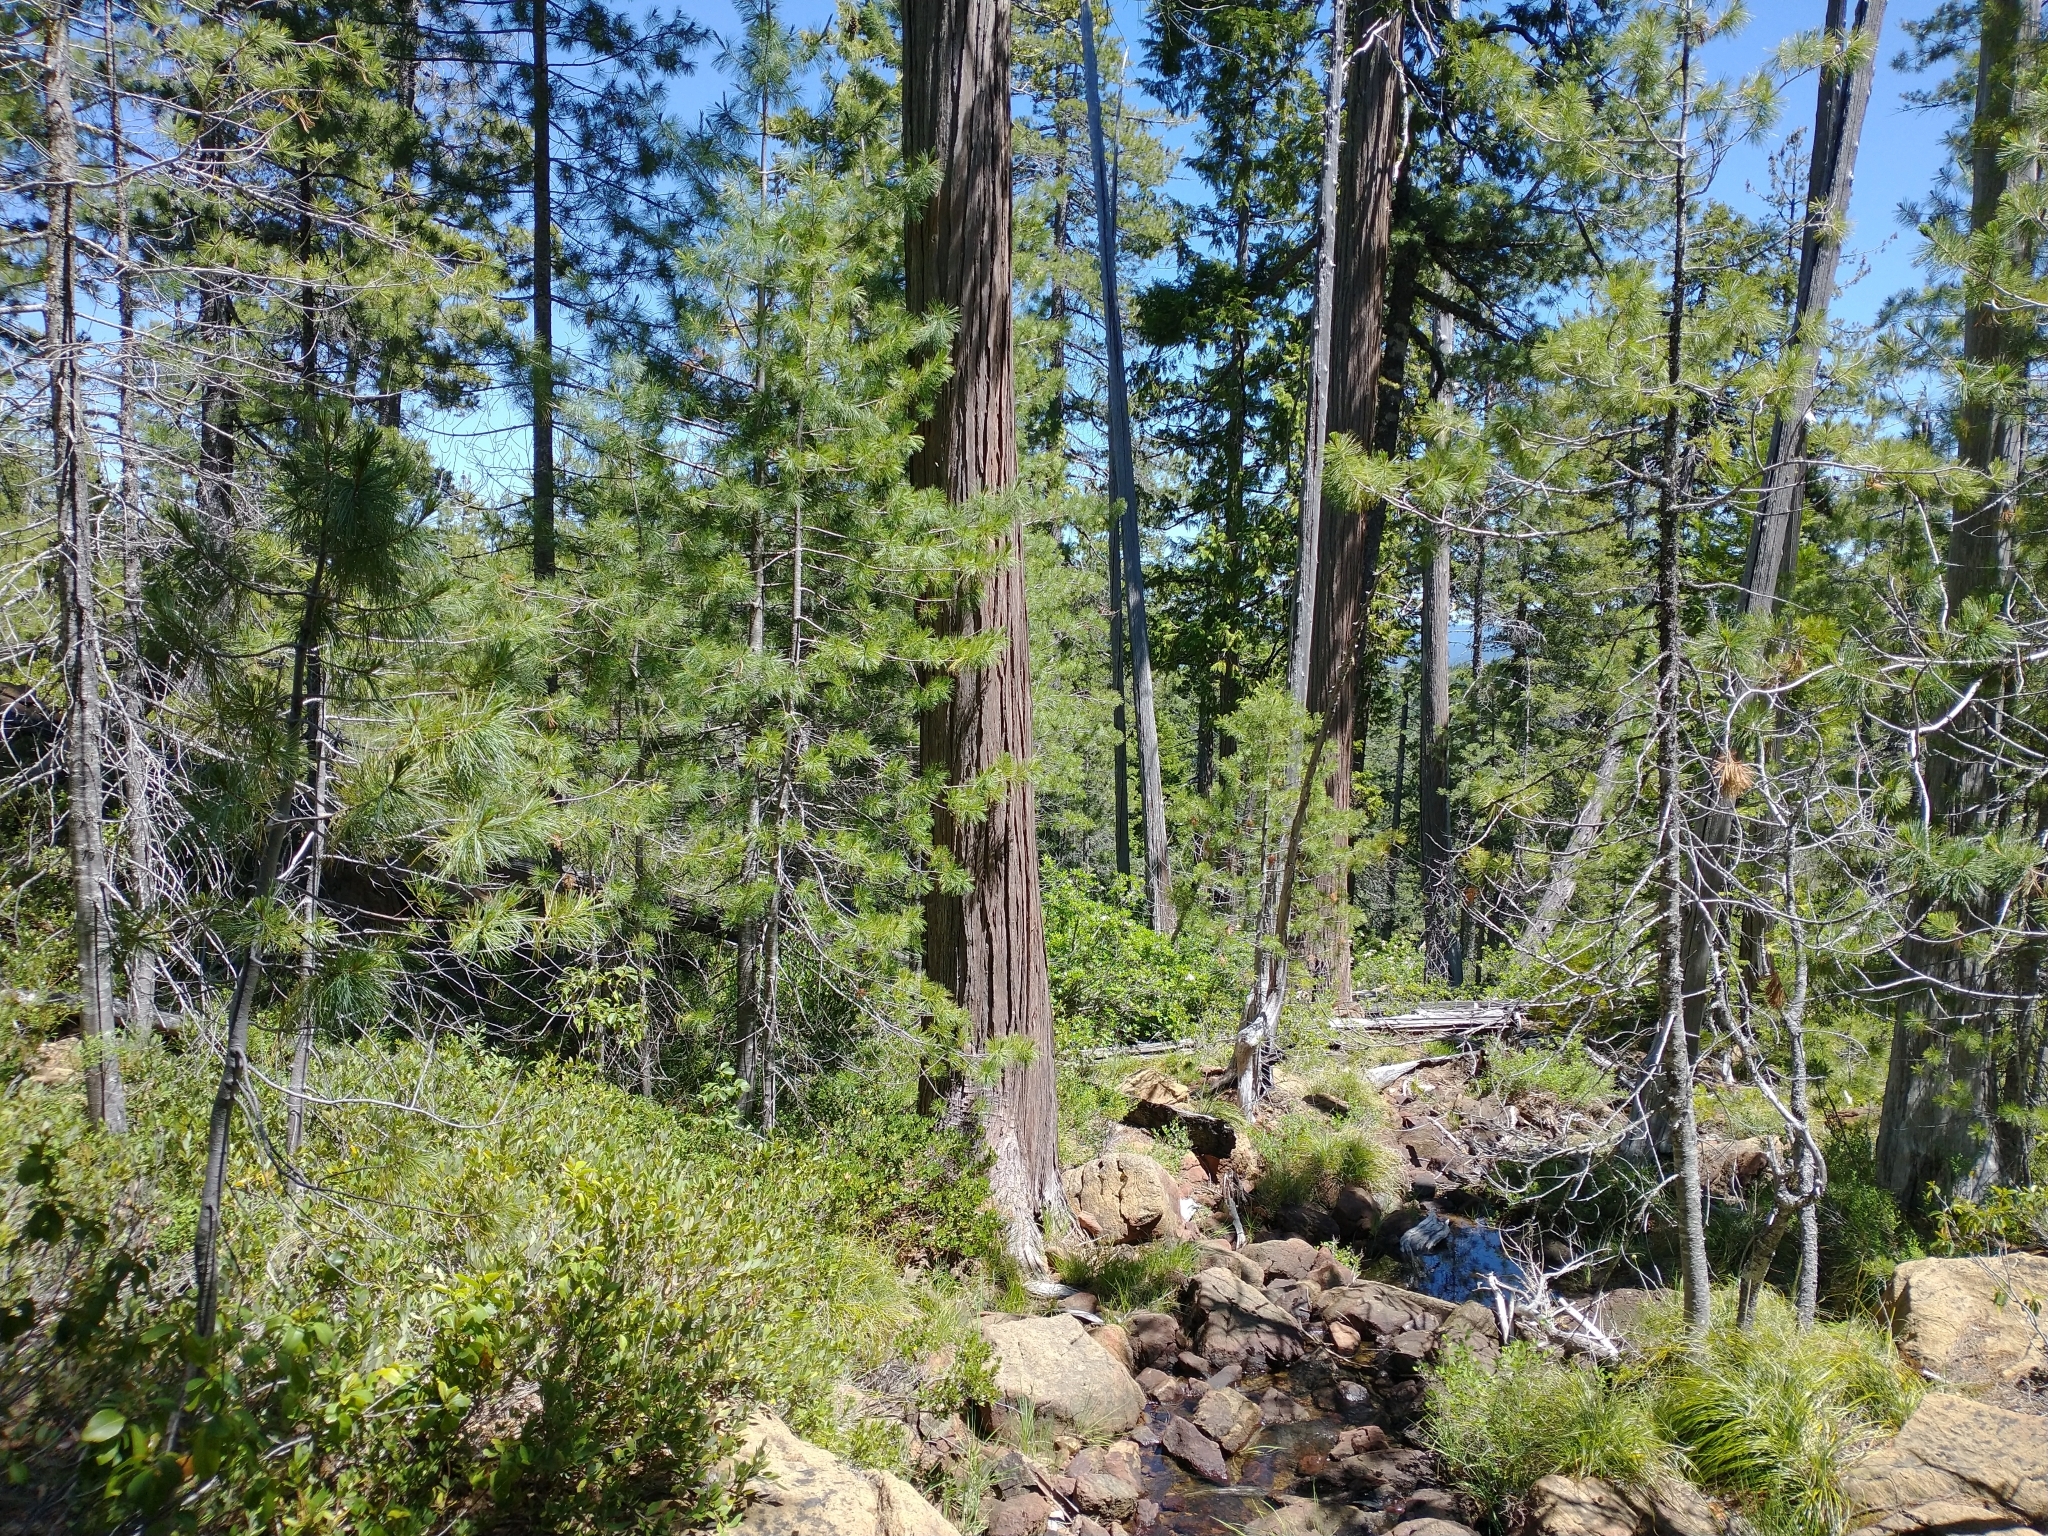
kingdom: Plantae
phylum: Tracheophyta
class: Pinopsida
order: Pinales
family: Cupressaceae
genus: Chamaecyparis
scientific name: Chamaecyparis lawsoniana
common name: Lawson's cypress
